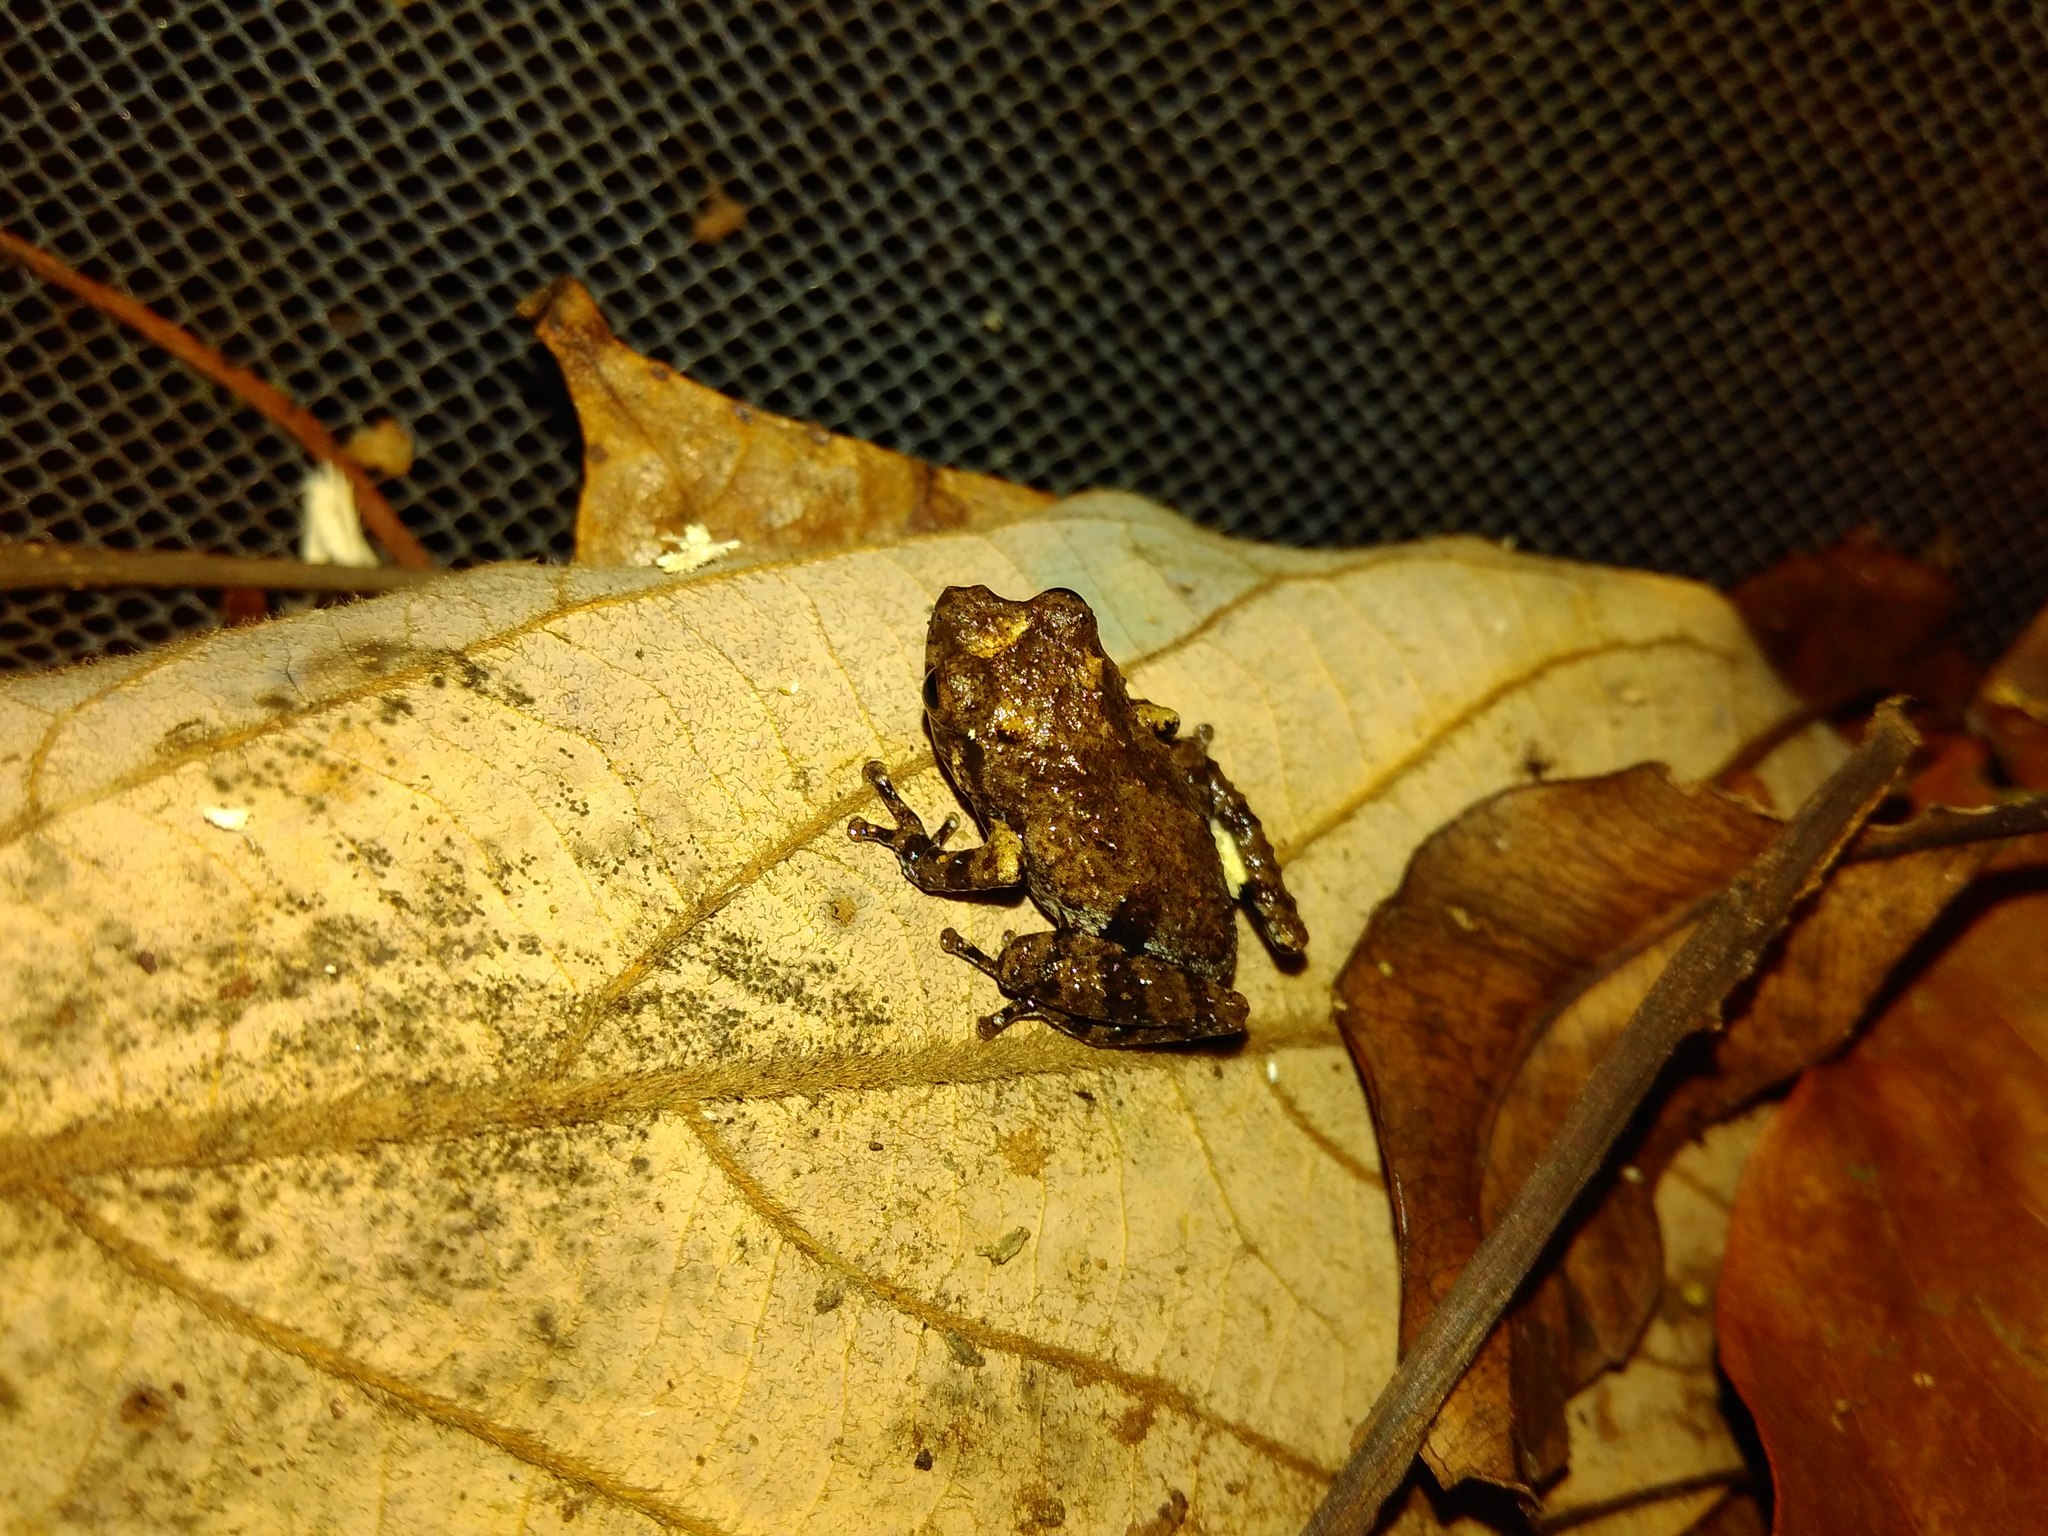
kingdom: Animalia
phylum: Chordata
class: Amphibia
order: Anura
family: Rhacophoridae
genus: Raorchestes
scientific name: Raorchestes tuberohumerus
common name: Kudremukh bush frog
